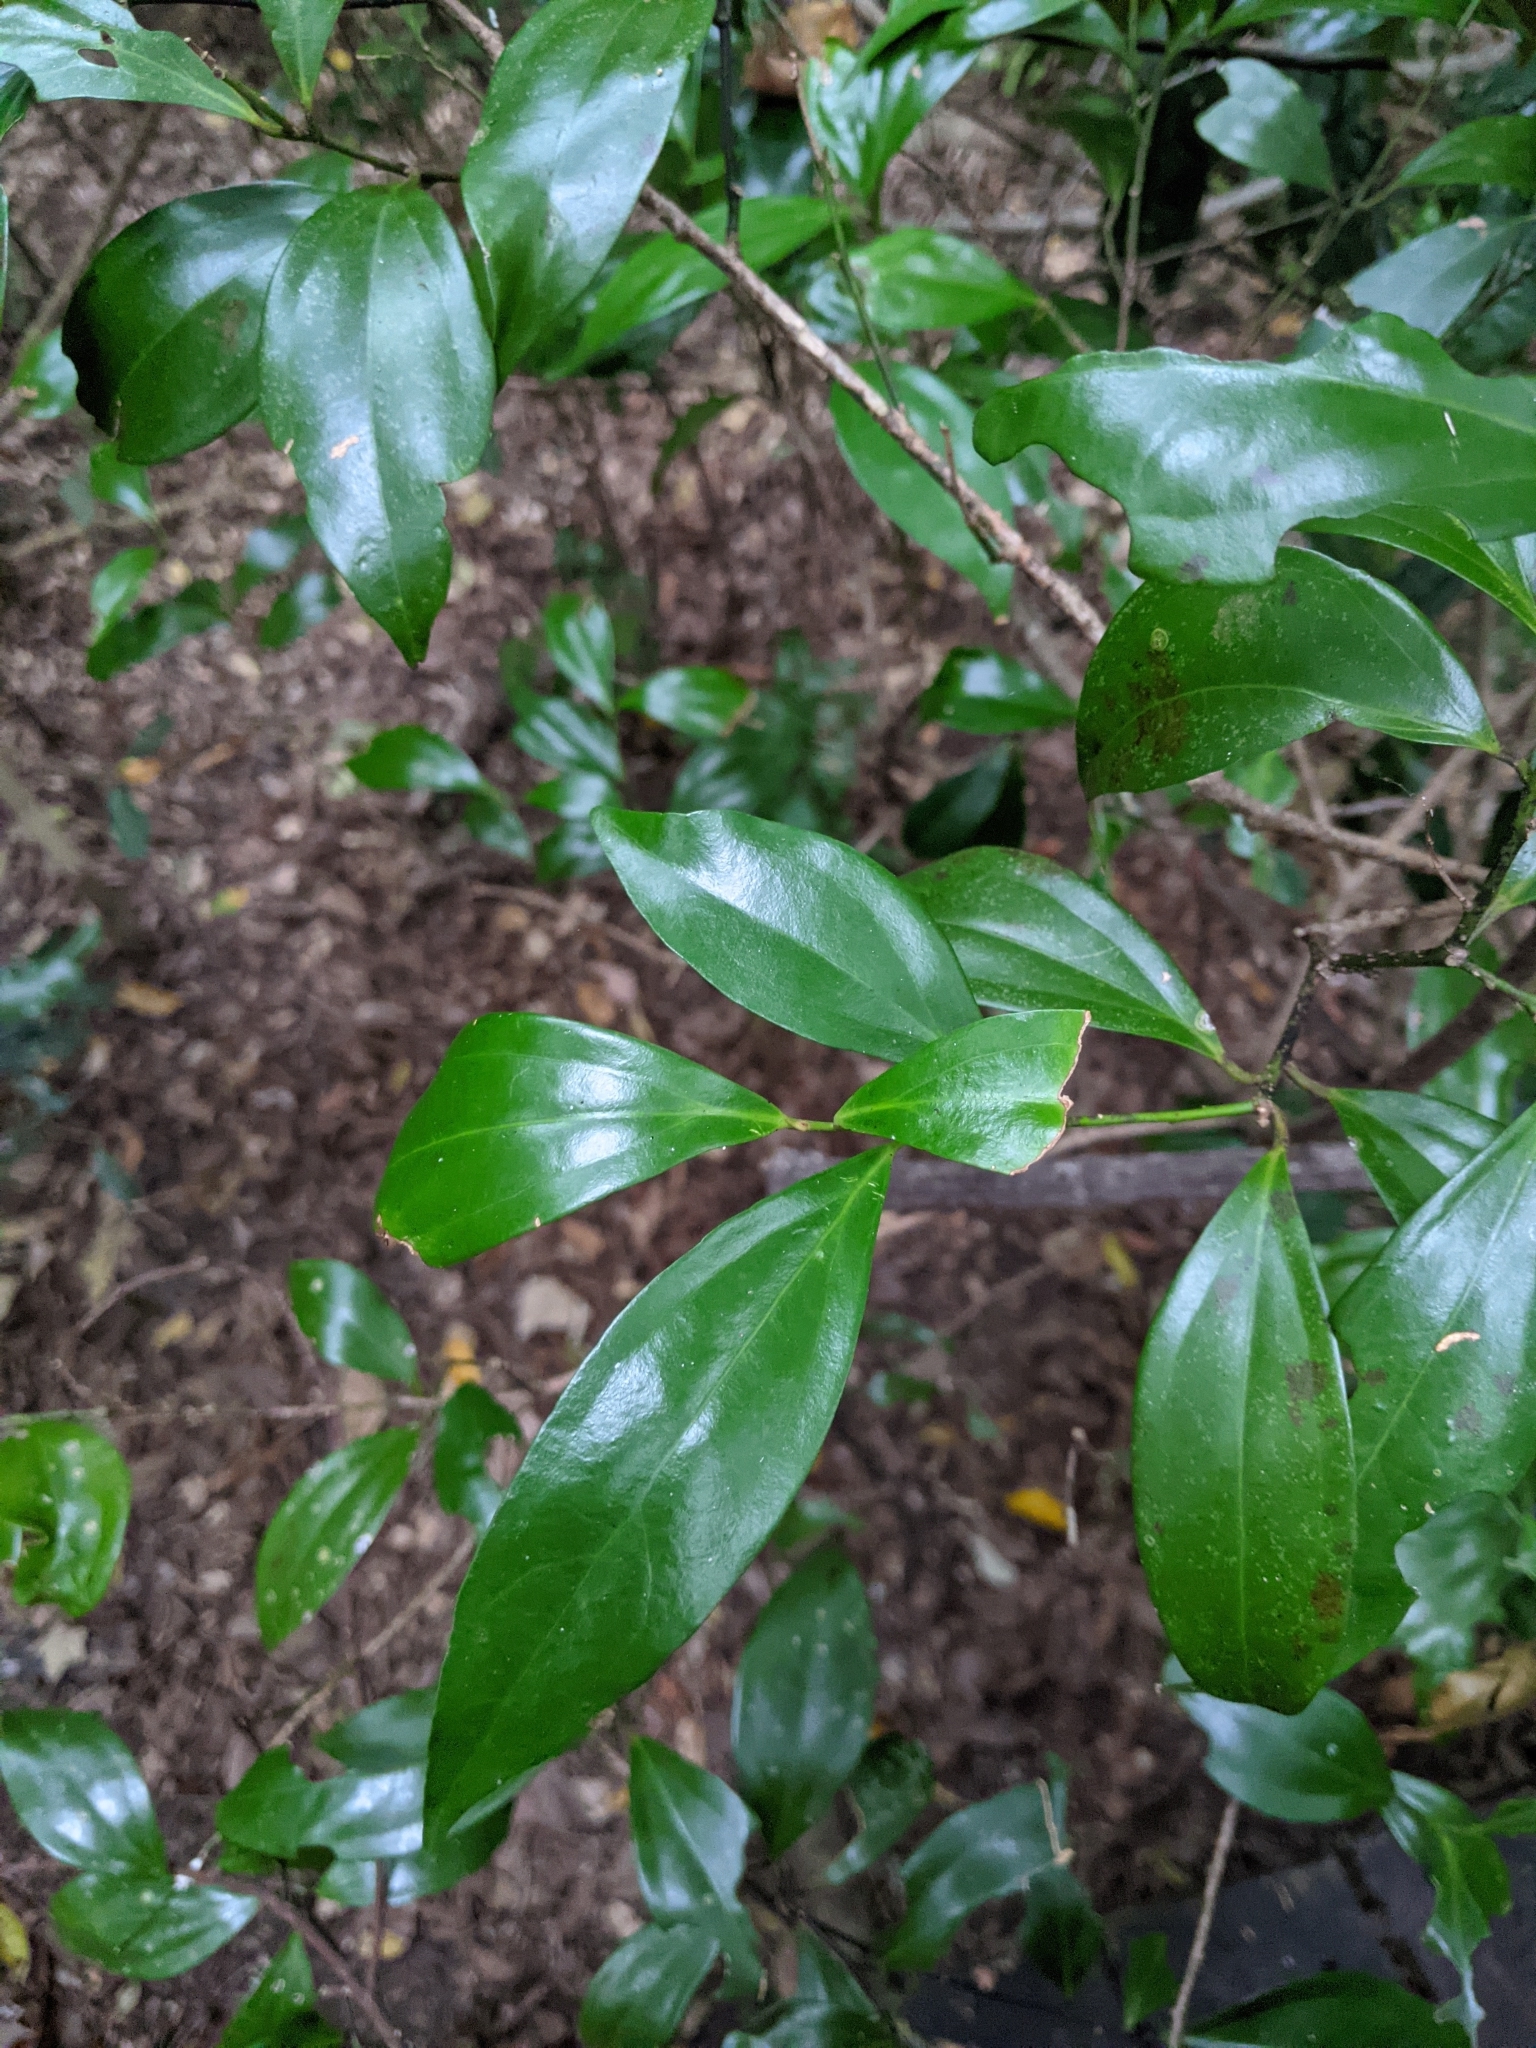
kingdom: Plantae
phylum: Tracheophyta
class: Magnoliopsida
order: Laurales
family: Lauraceae
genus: Cryptocarya
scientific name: Cryptocarya laevigata
